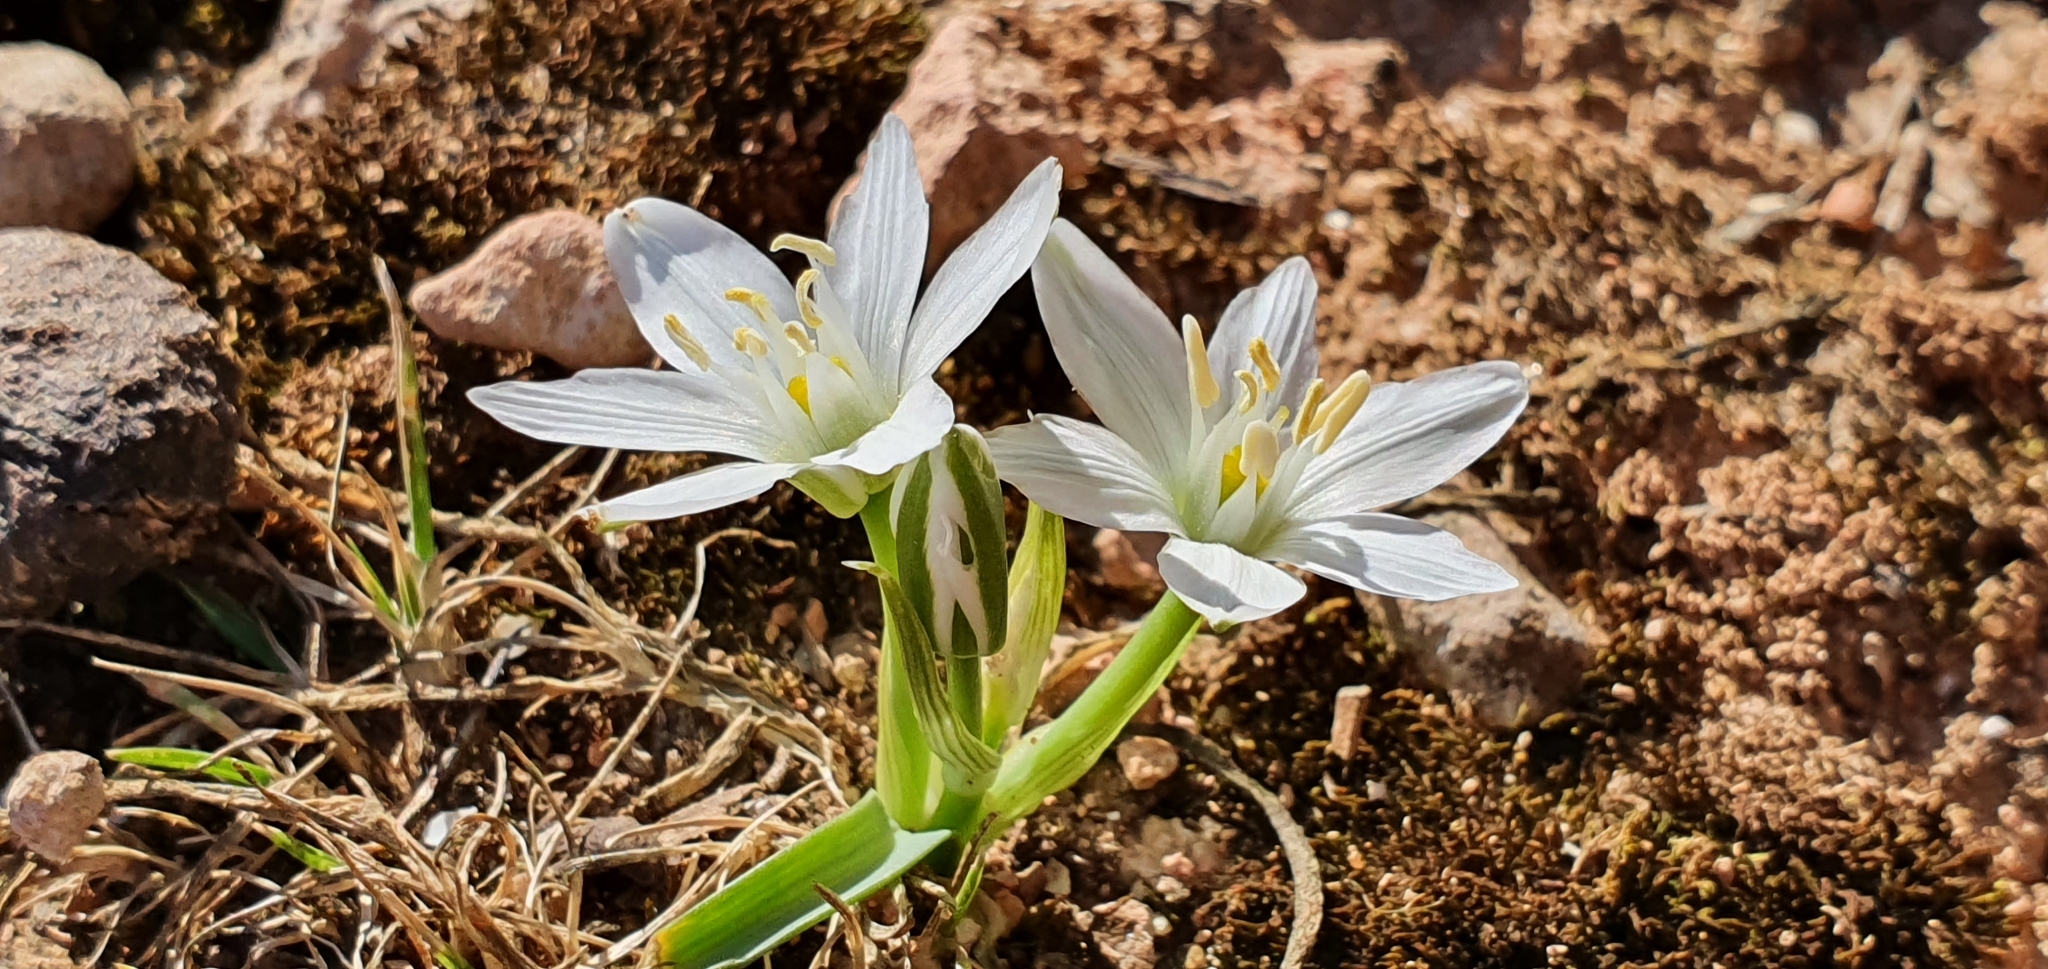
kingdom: Plantae
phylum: Tracheophyta
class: Liliopsida
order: Asparagales
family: Asparagaceae
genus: Ornithogalum
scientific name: Ornithogalum baeticum
